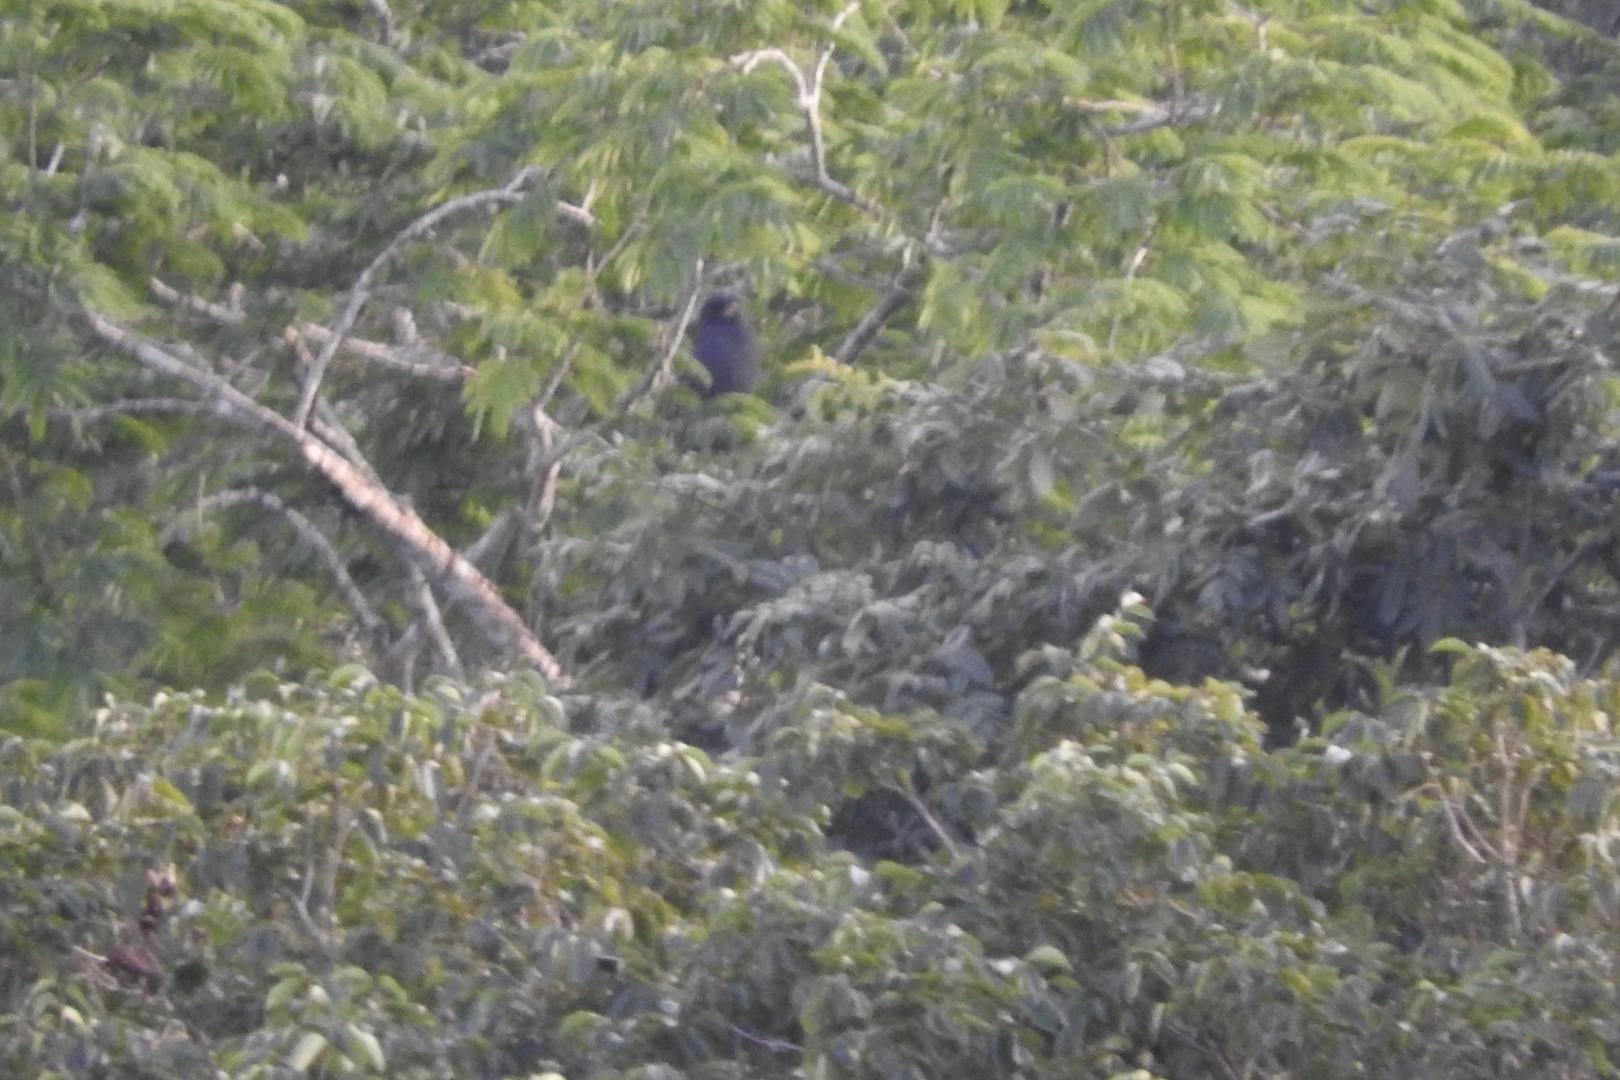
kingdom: Animalia
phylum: Chordata
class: Aves
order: Accipitriformes
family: Accipitridae
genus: Buteogallus
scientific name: Buteogallus urubitinga
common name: Great black hawk
